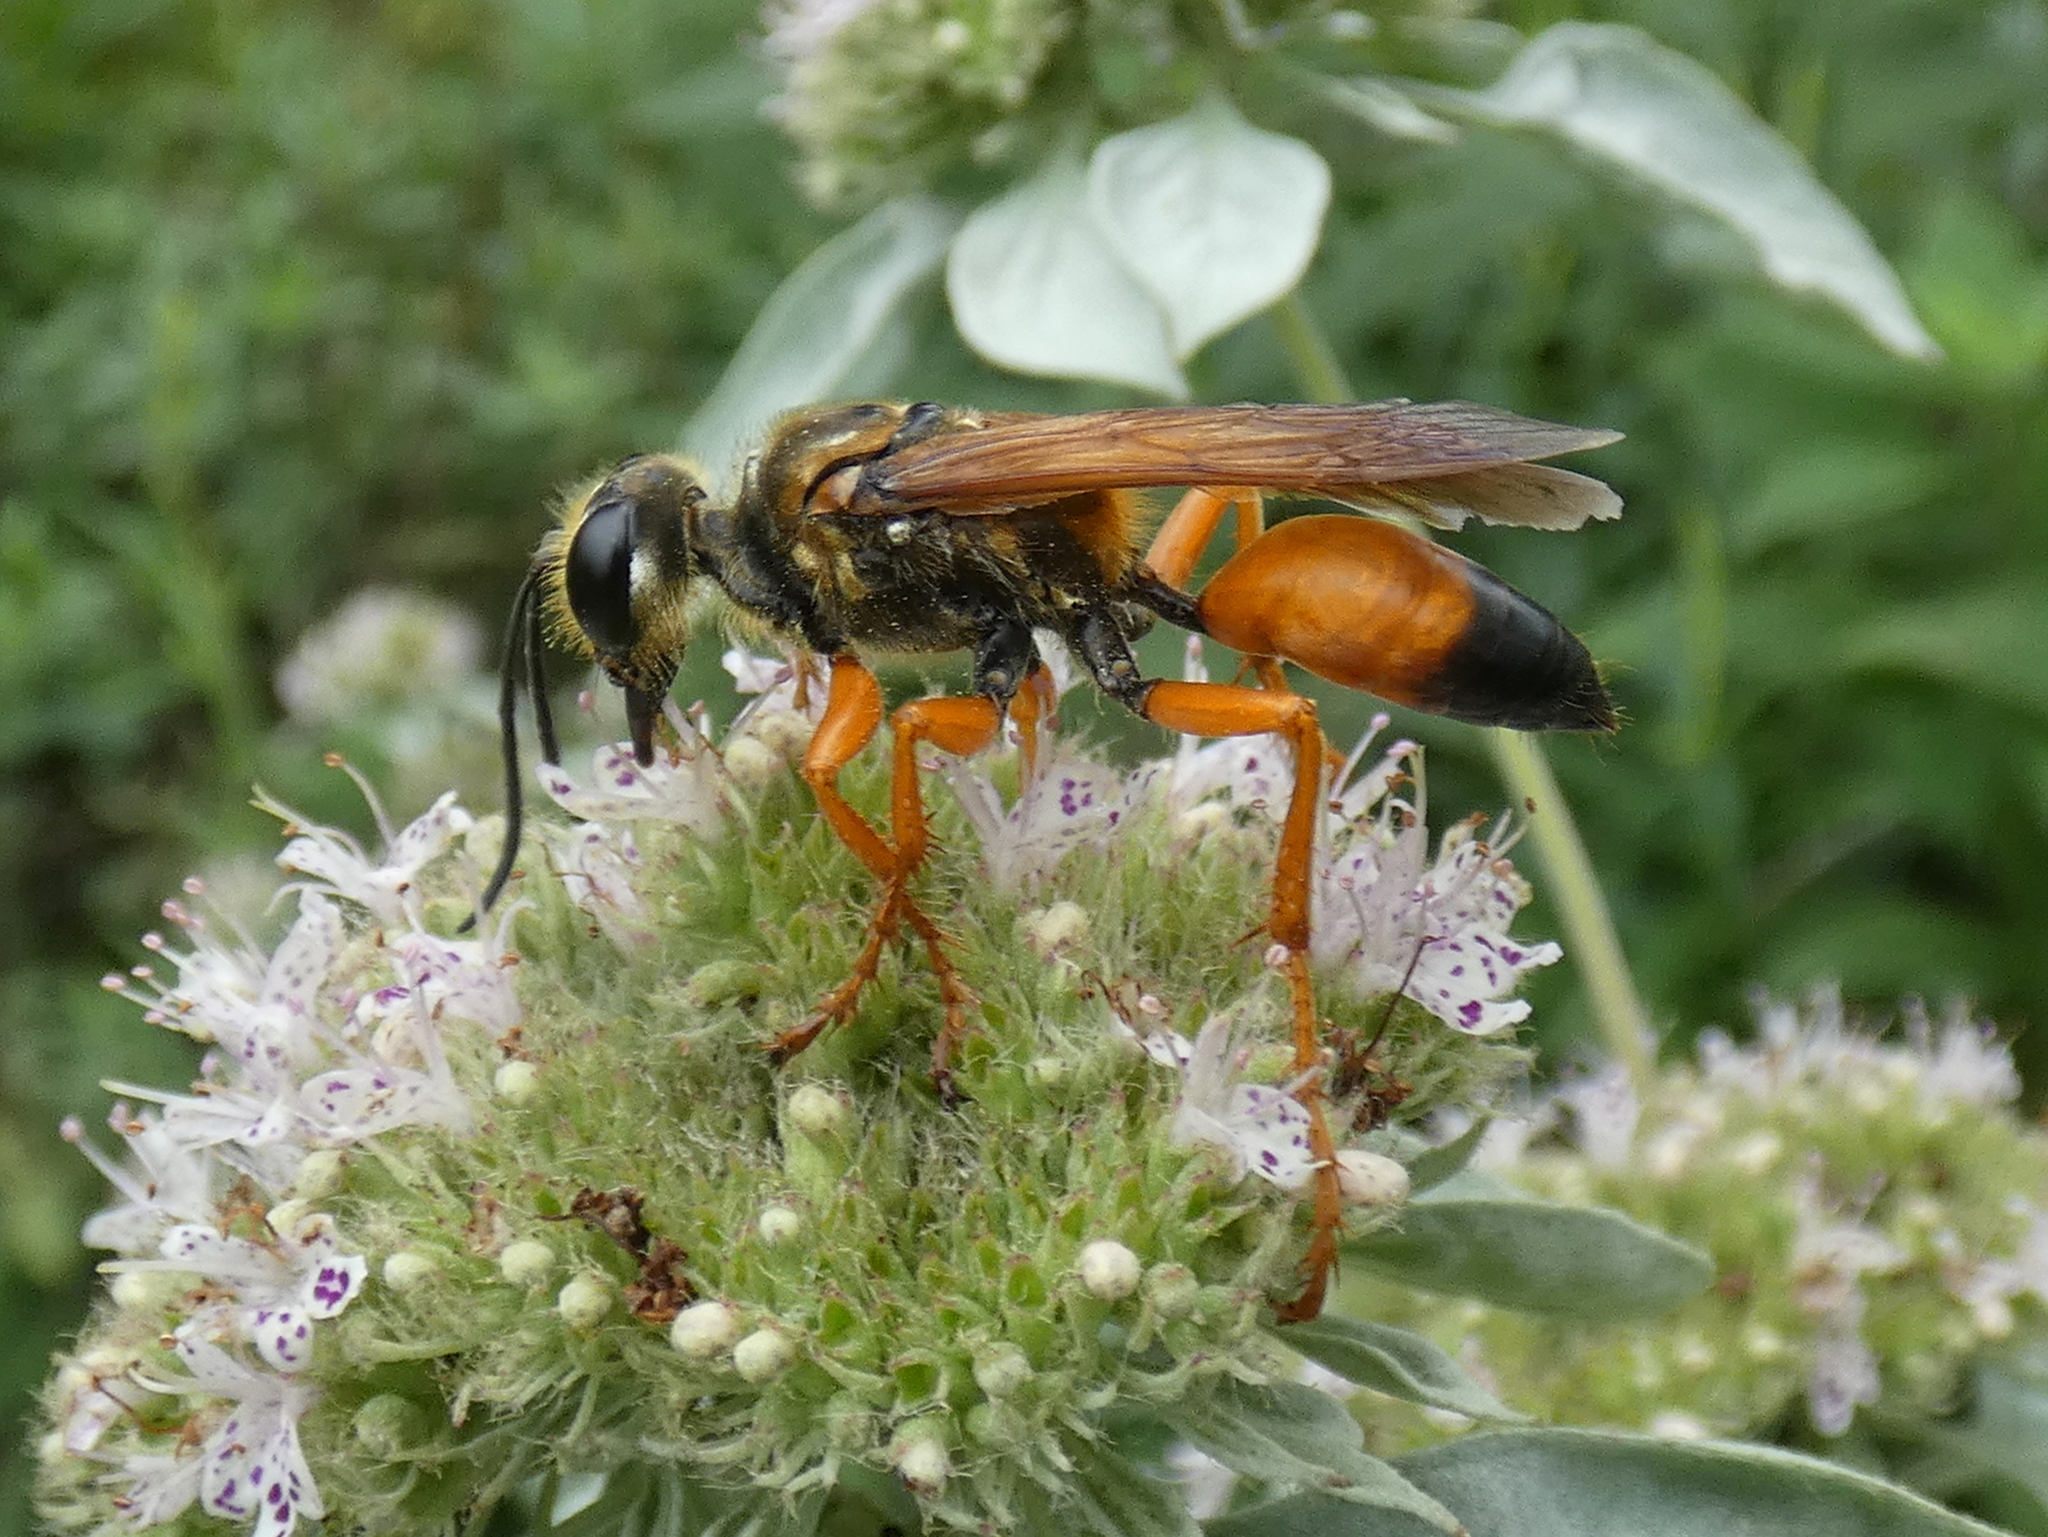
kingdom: Animalia
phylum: Arthropoda
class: Insecta
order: Hymenoptera
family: Sphecidae
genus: Sphex
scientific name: Sphex ichneumoneus
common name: Great golden digger wasp
